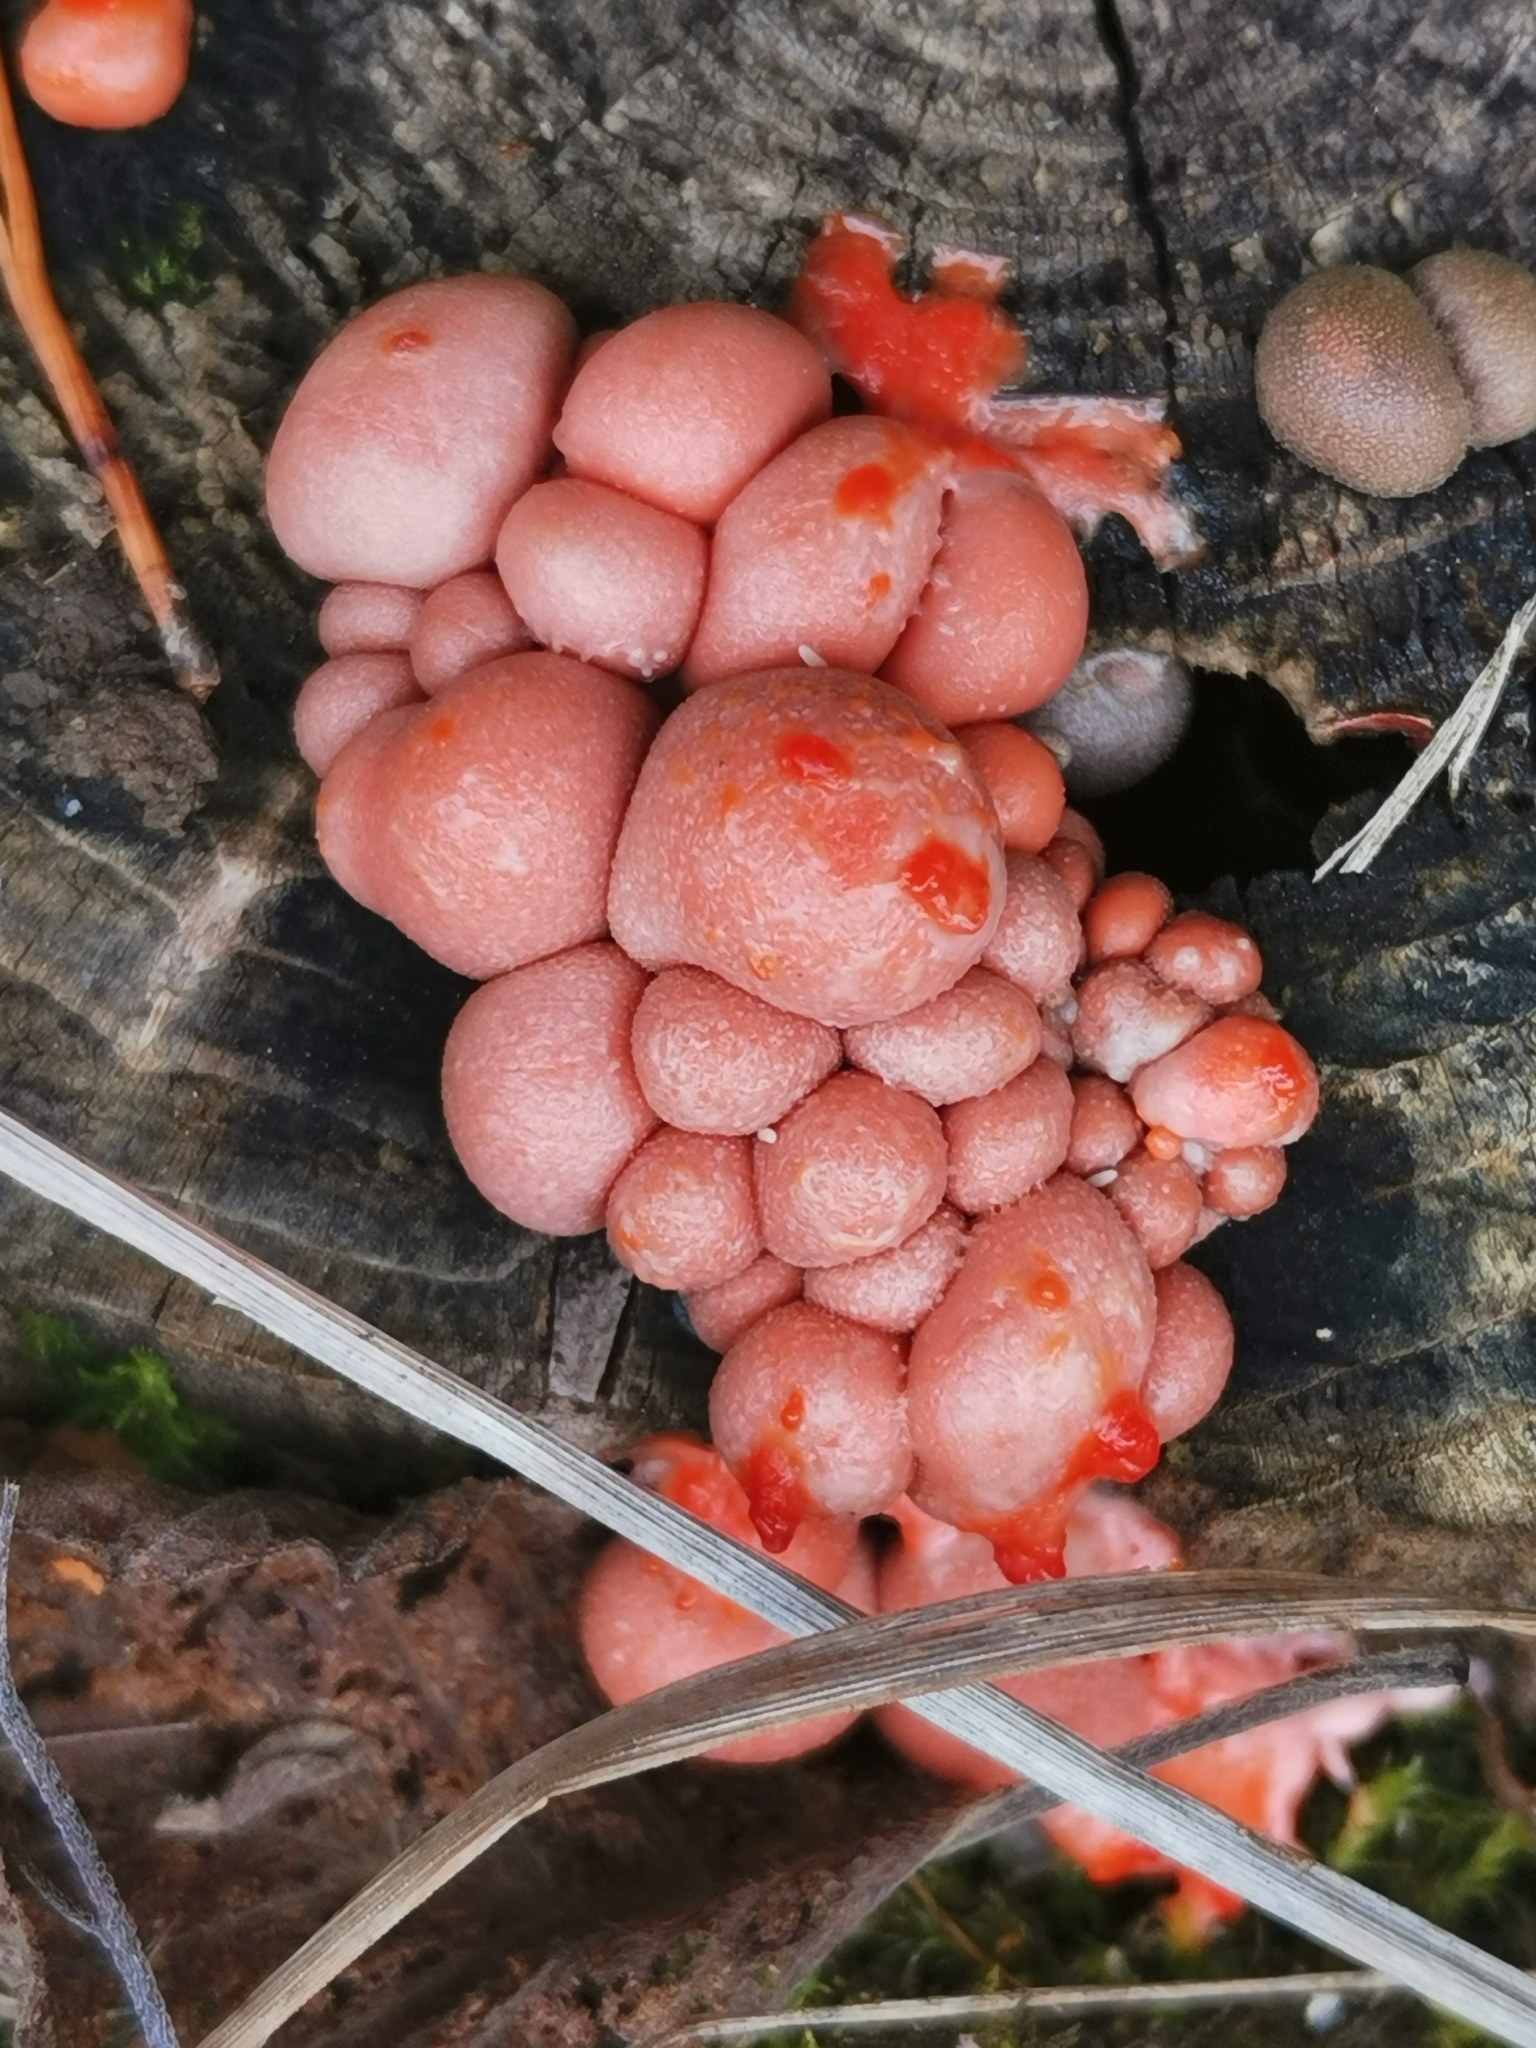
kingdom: Protozoa
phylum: Mycetozoa
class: Myxomycetes
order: Cribrariales
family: Tubiferaceae
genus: Lycogala
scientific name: Lycogala epidendrum
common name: Wolf's milk
